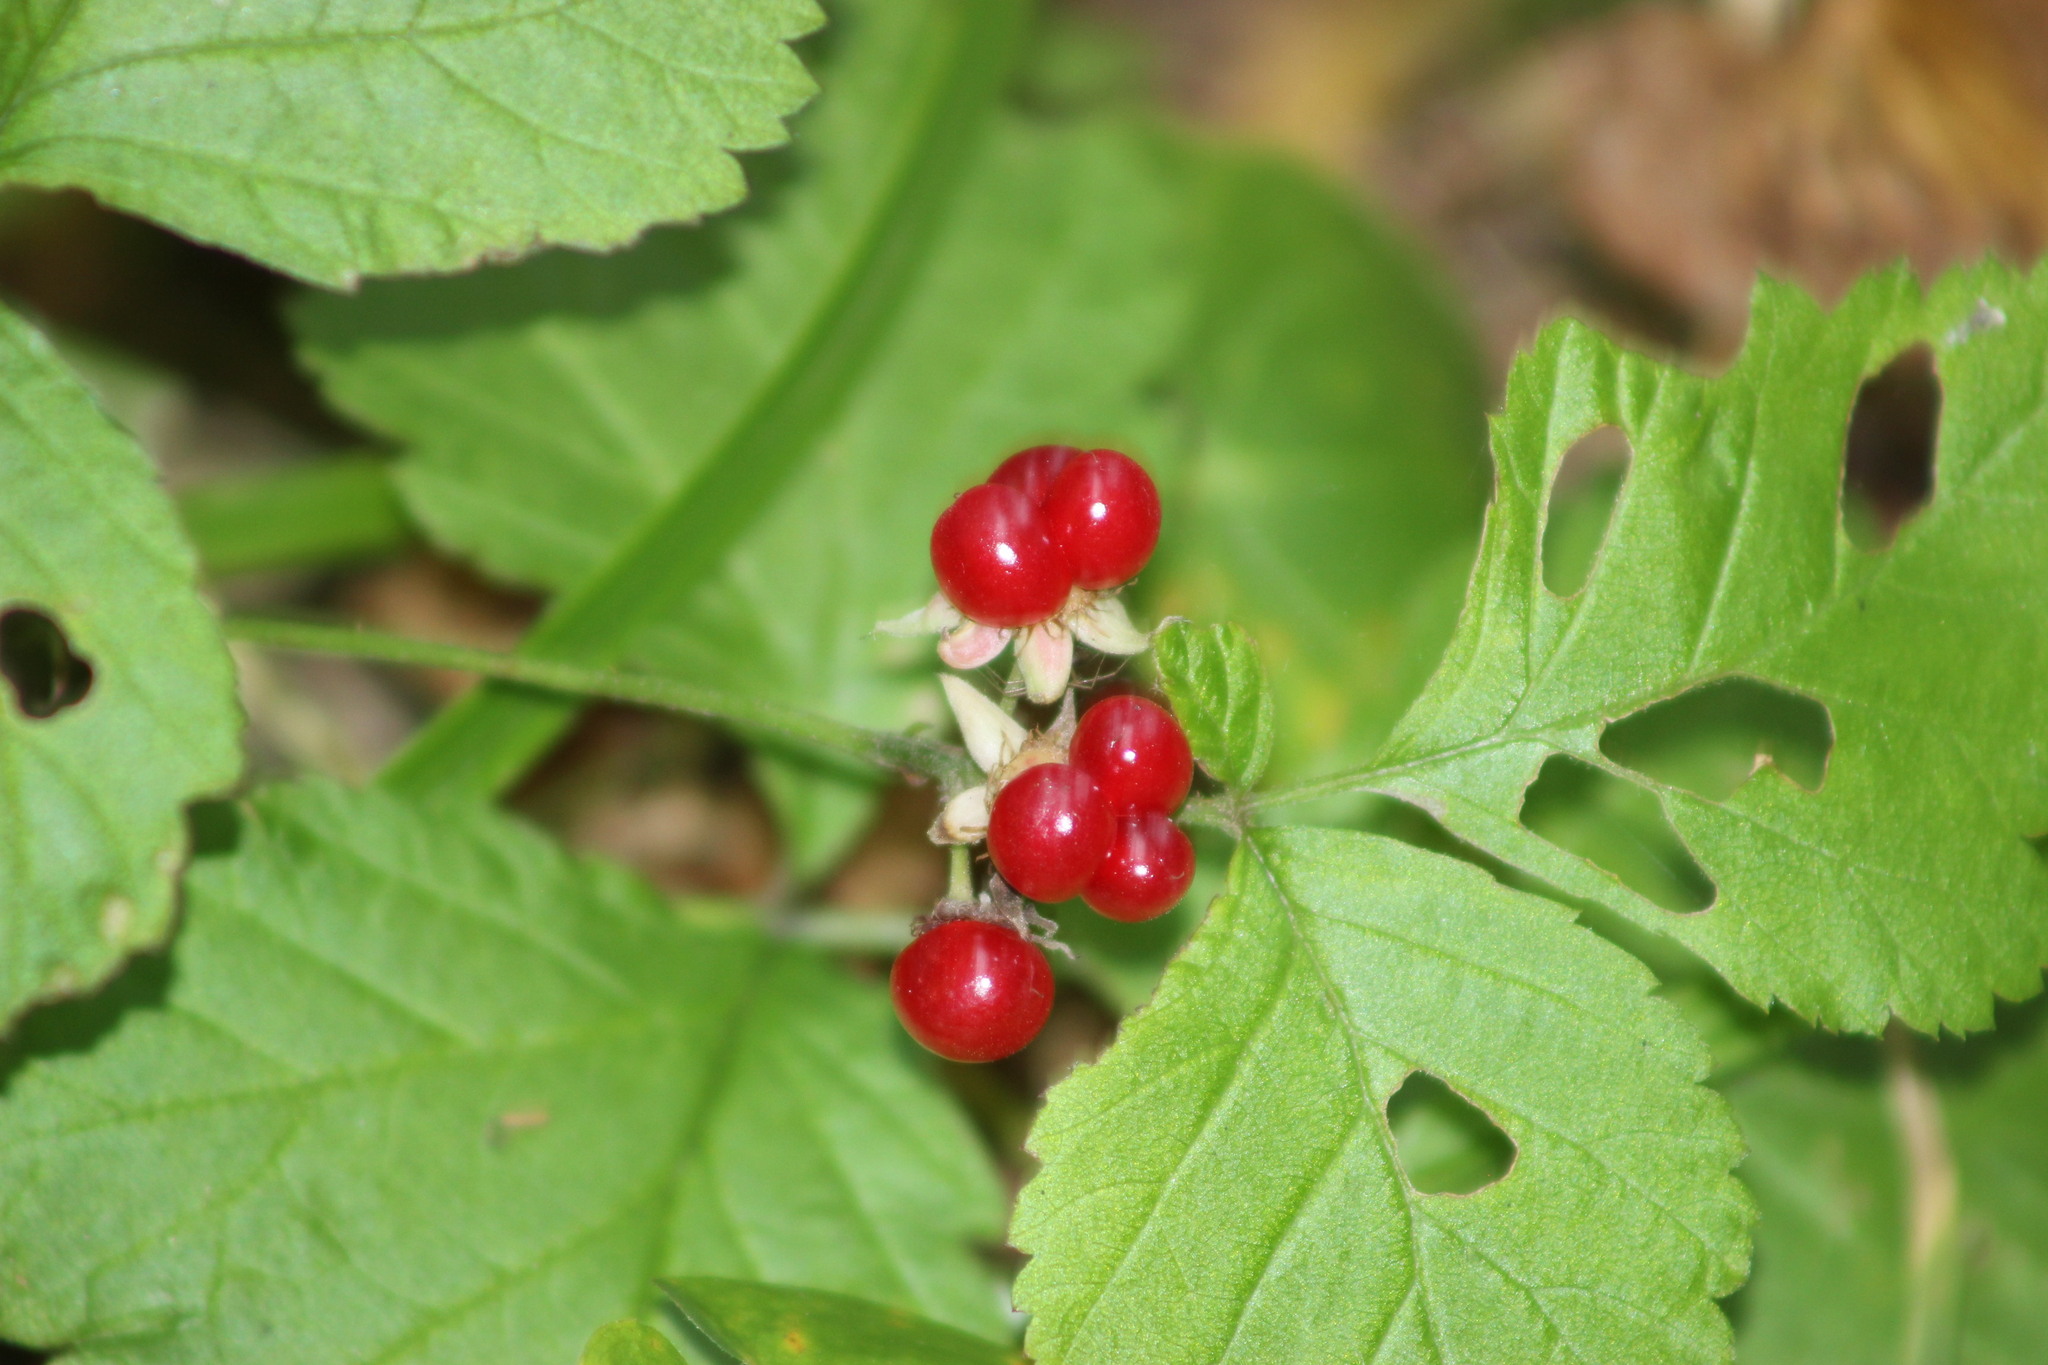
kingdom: Plantae
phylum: Tracheophyta
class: Magnoliopsida
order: Rosales
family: Rosaceae
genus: Rubus
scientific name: Rubus saxatilis
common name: Stone bramble
